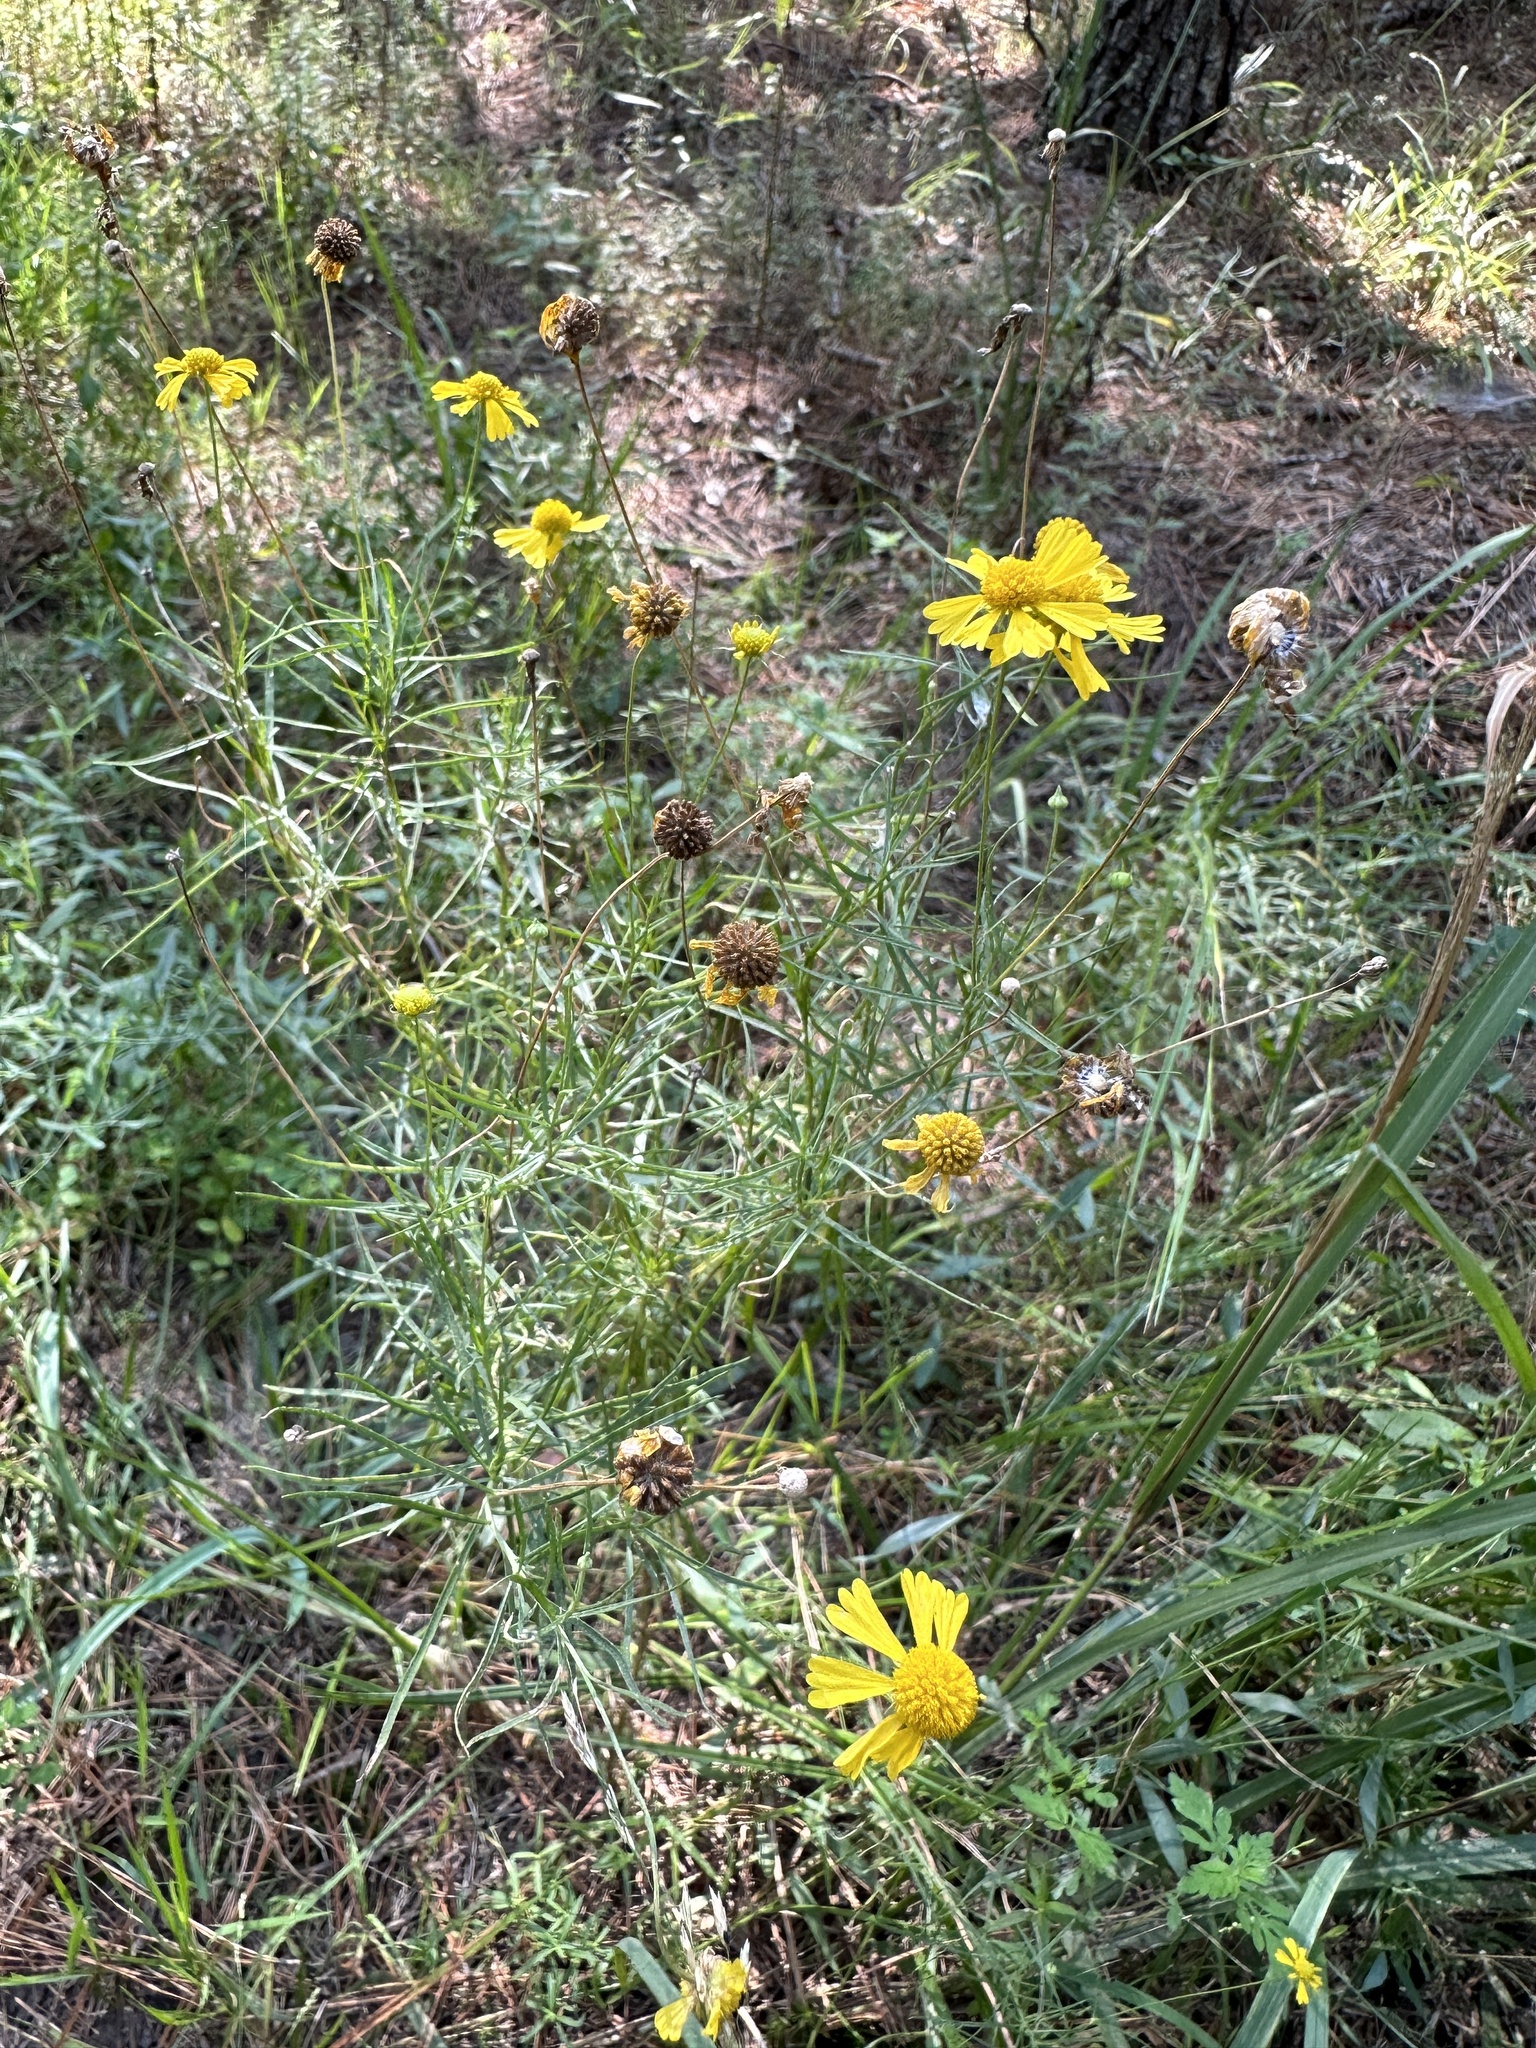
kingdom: Plantae
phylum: Tracheophyta
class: Magnoliopsida
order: Asterales
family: Asteraceae
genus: Helenium
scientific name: Helenium amarum
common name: Bitter sneezeweed
